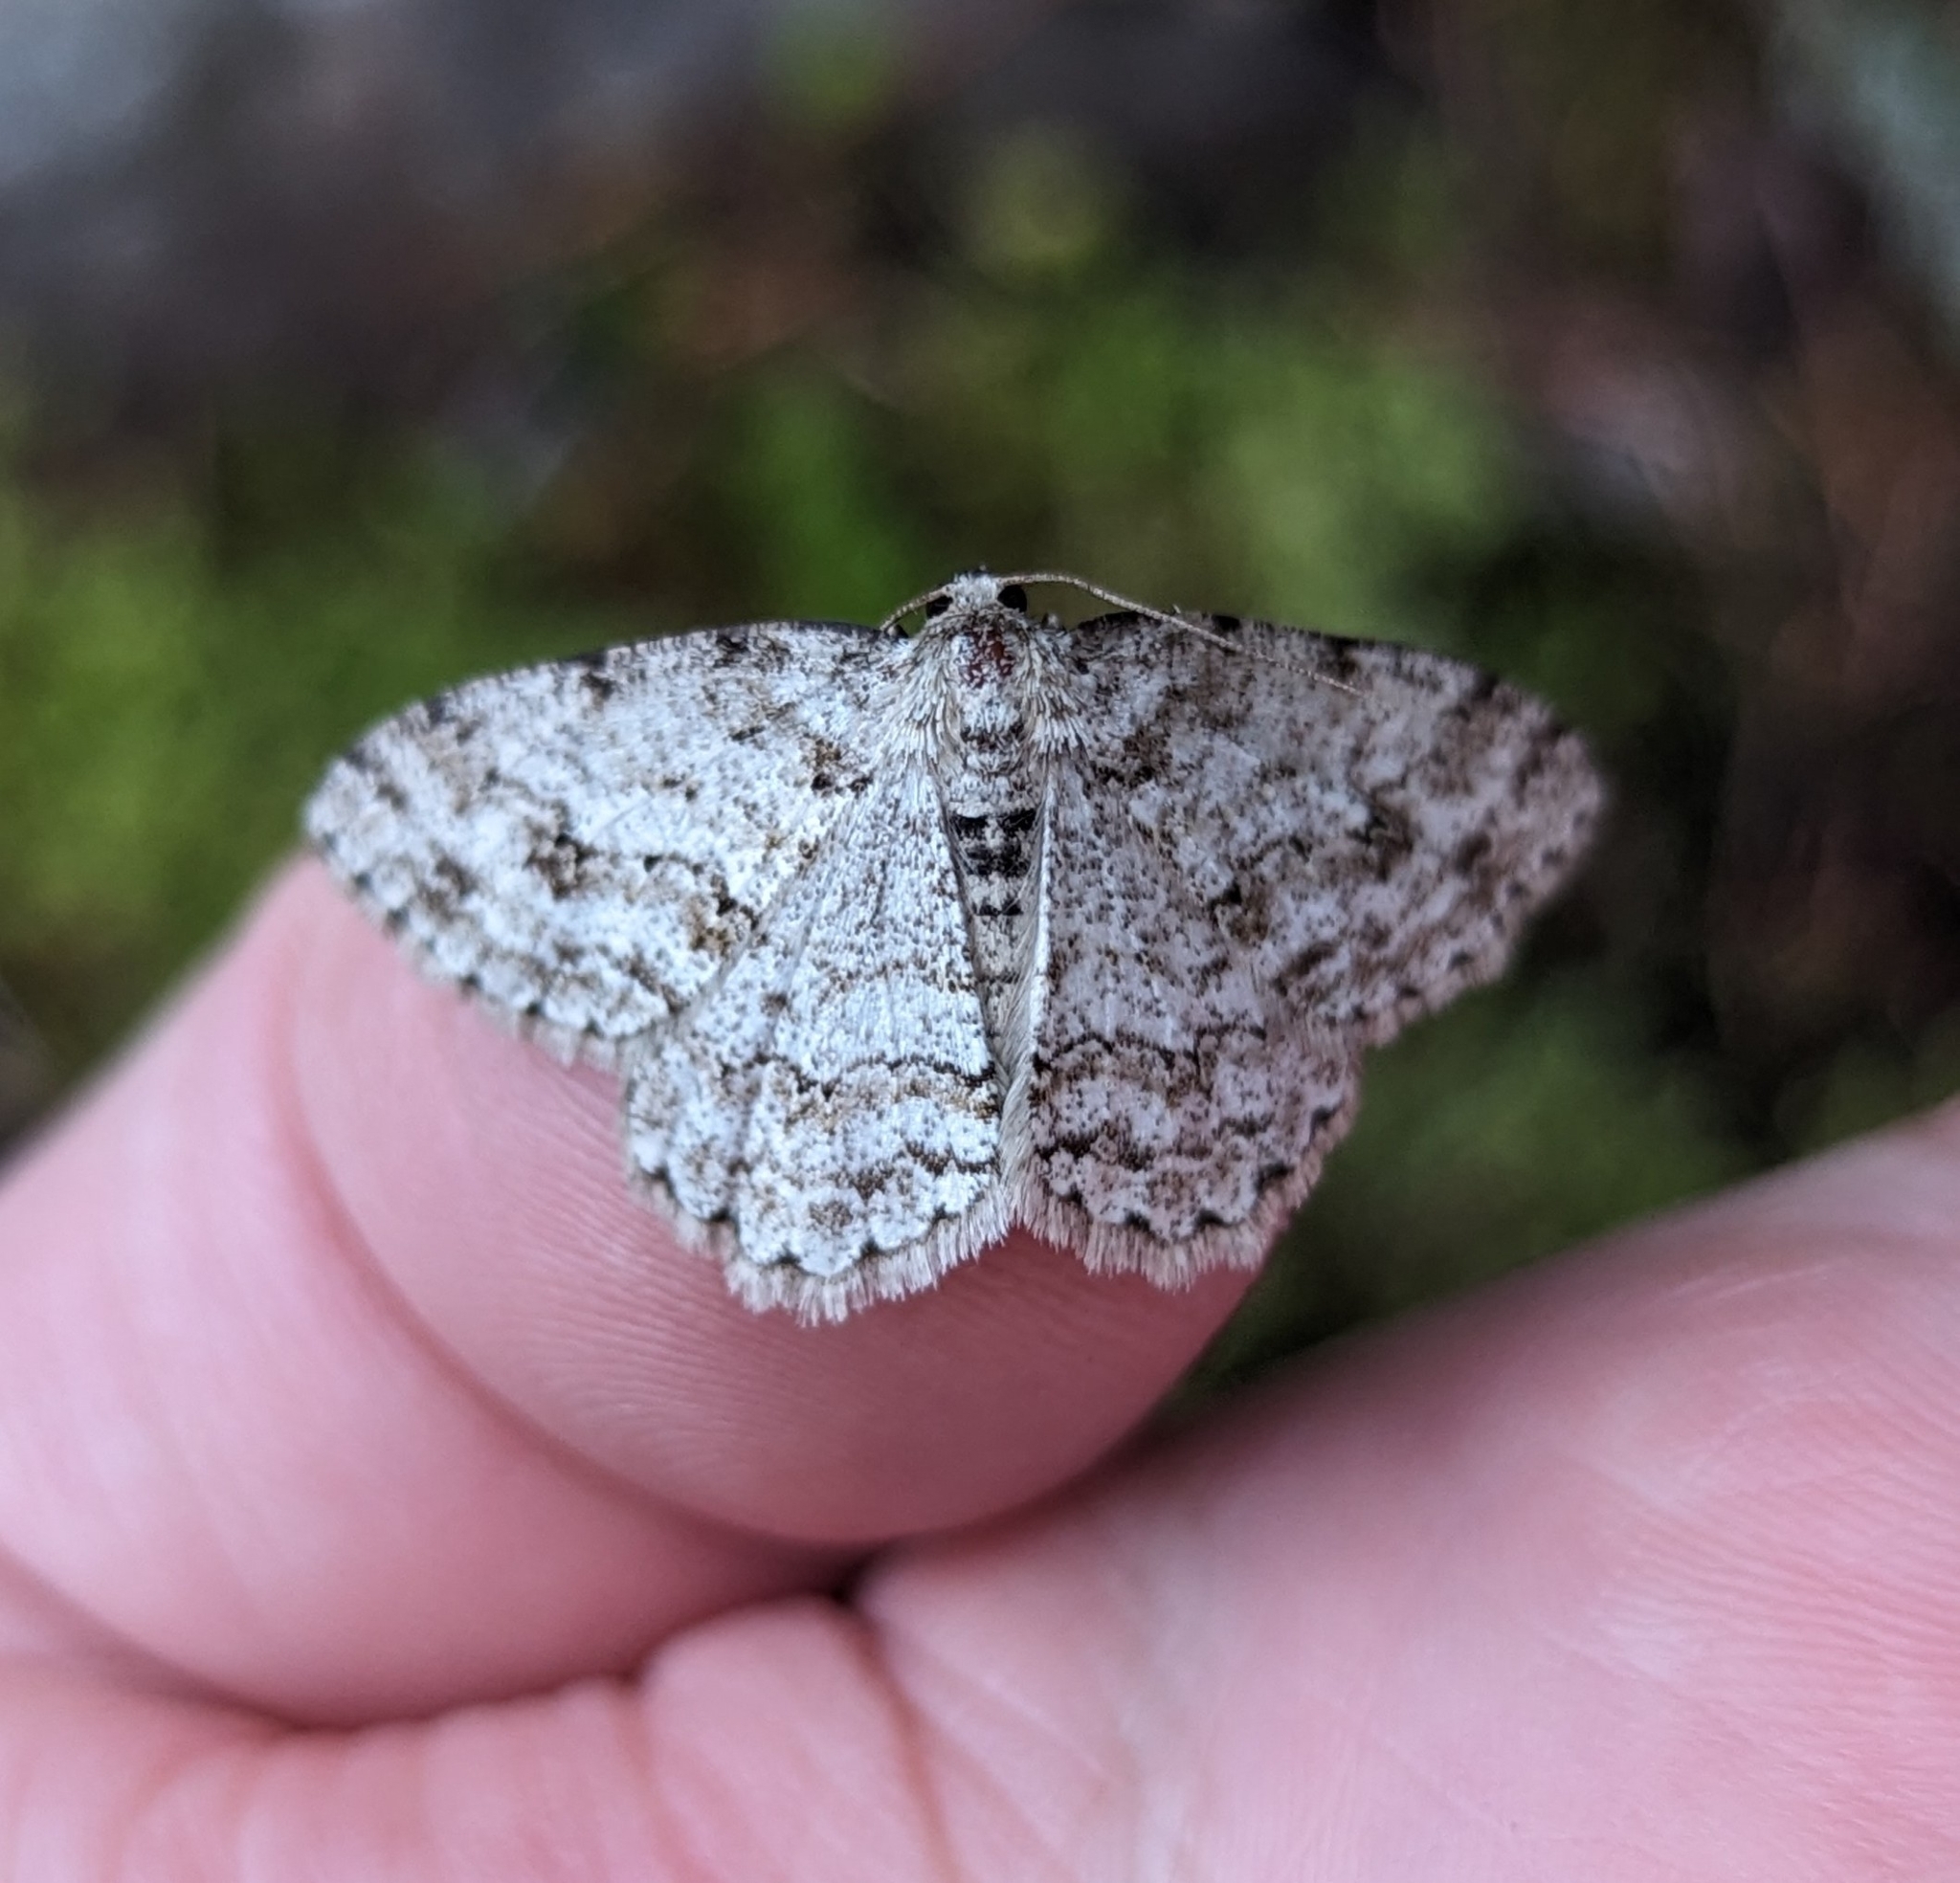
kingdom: Animalia
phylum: Arthropoda
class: Insecta
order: Lepidoptera
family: Geometridae
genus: Ectropis
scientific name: Ectropis crepuscularia
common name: Engrailed
